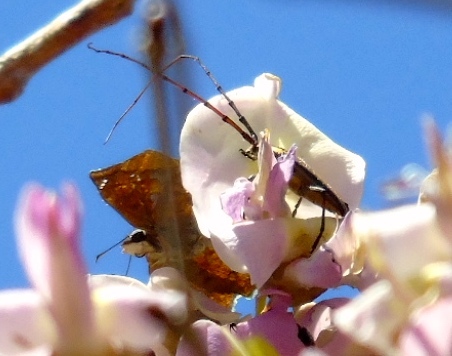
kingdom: Animalia
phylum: Arthropoda
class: Insecta
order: Coleoptera
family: Cerambycidae
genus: Sphaenothecus
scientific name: Sphaenothecus maccartyi
